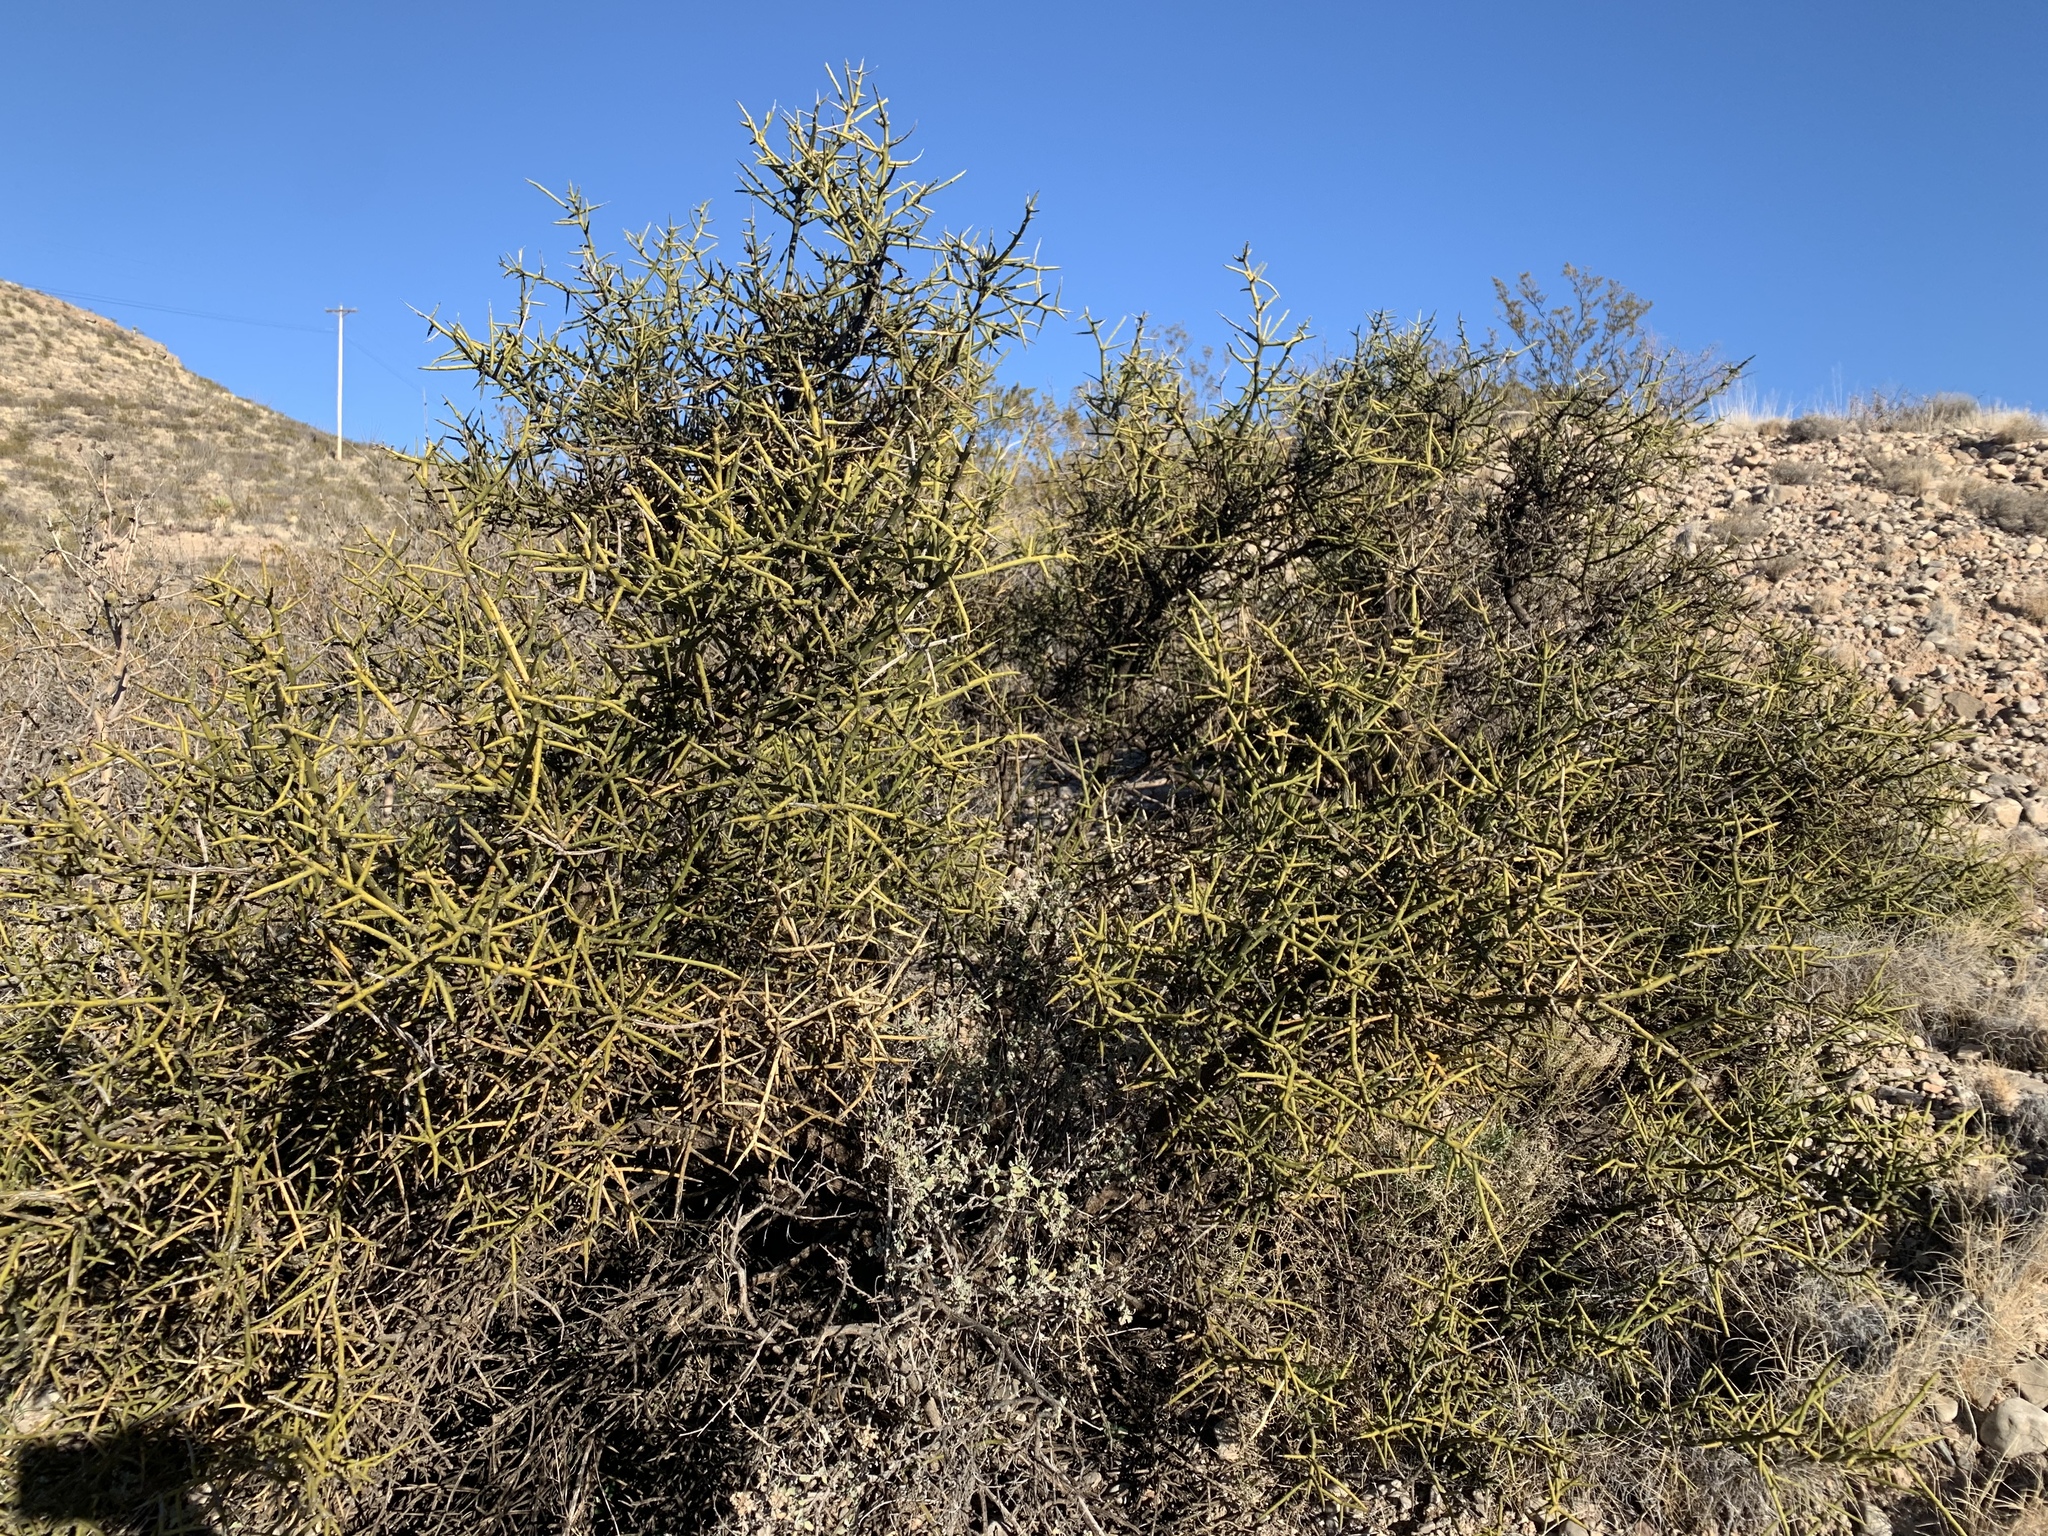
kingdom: Plantae
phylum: Tracheophyta
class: Magnoliopsida
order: Brassicales
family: Koeberliniaceae
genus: Koeberlinia
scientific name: Koeberlinia spinosa
